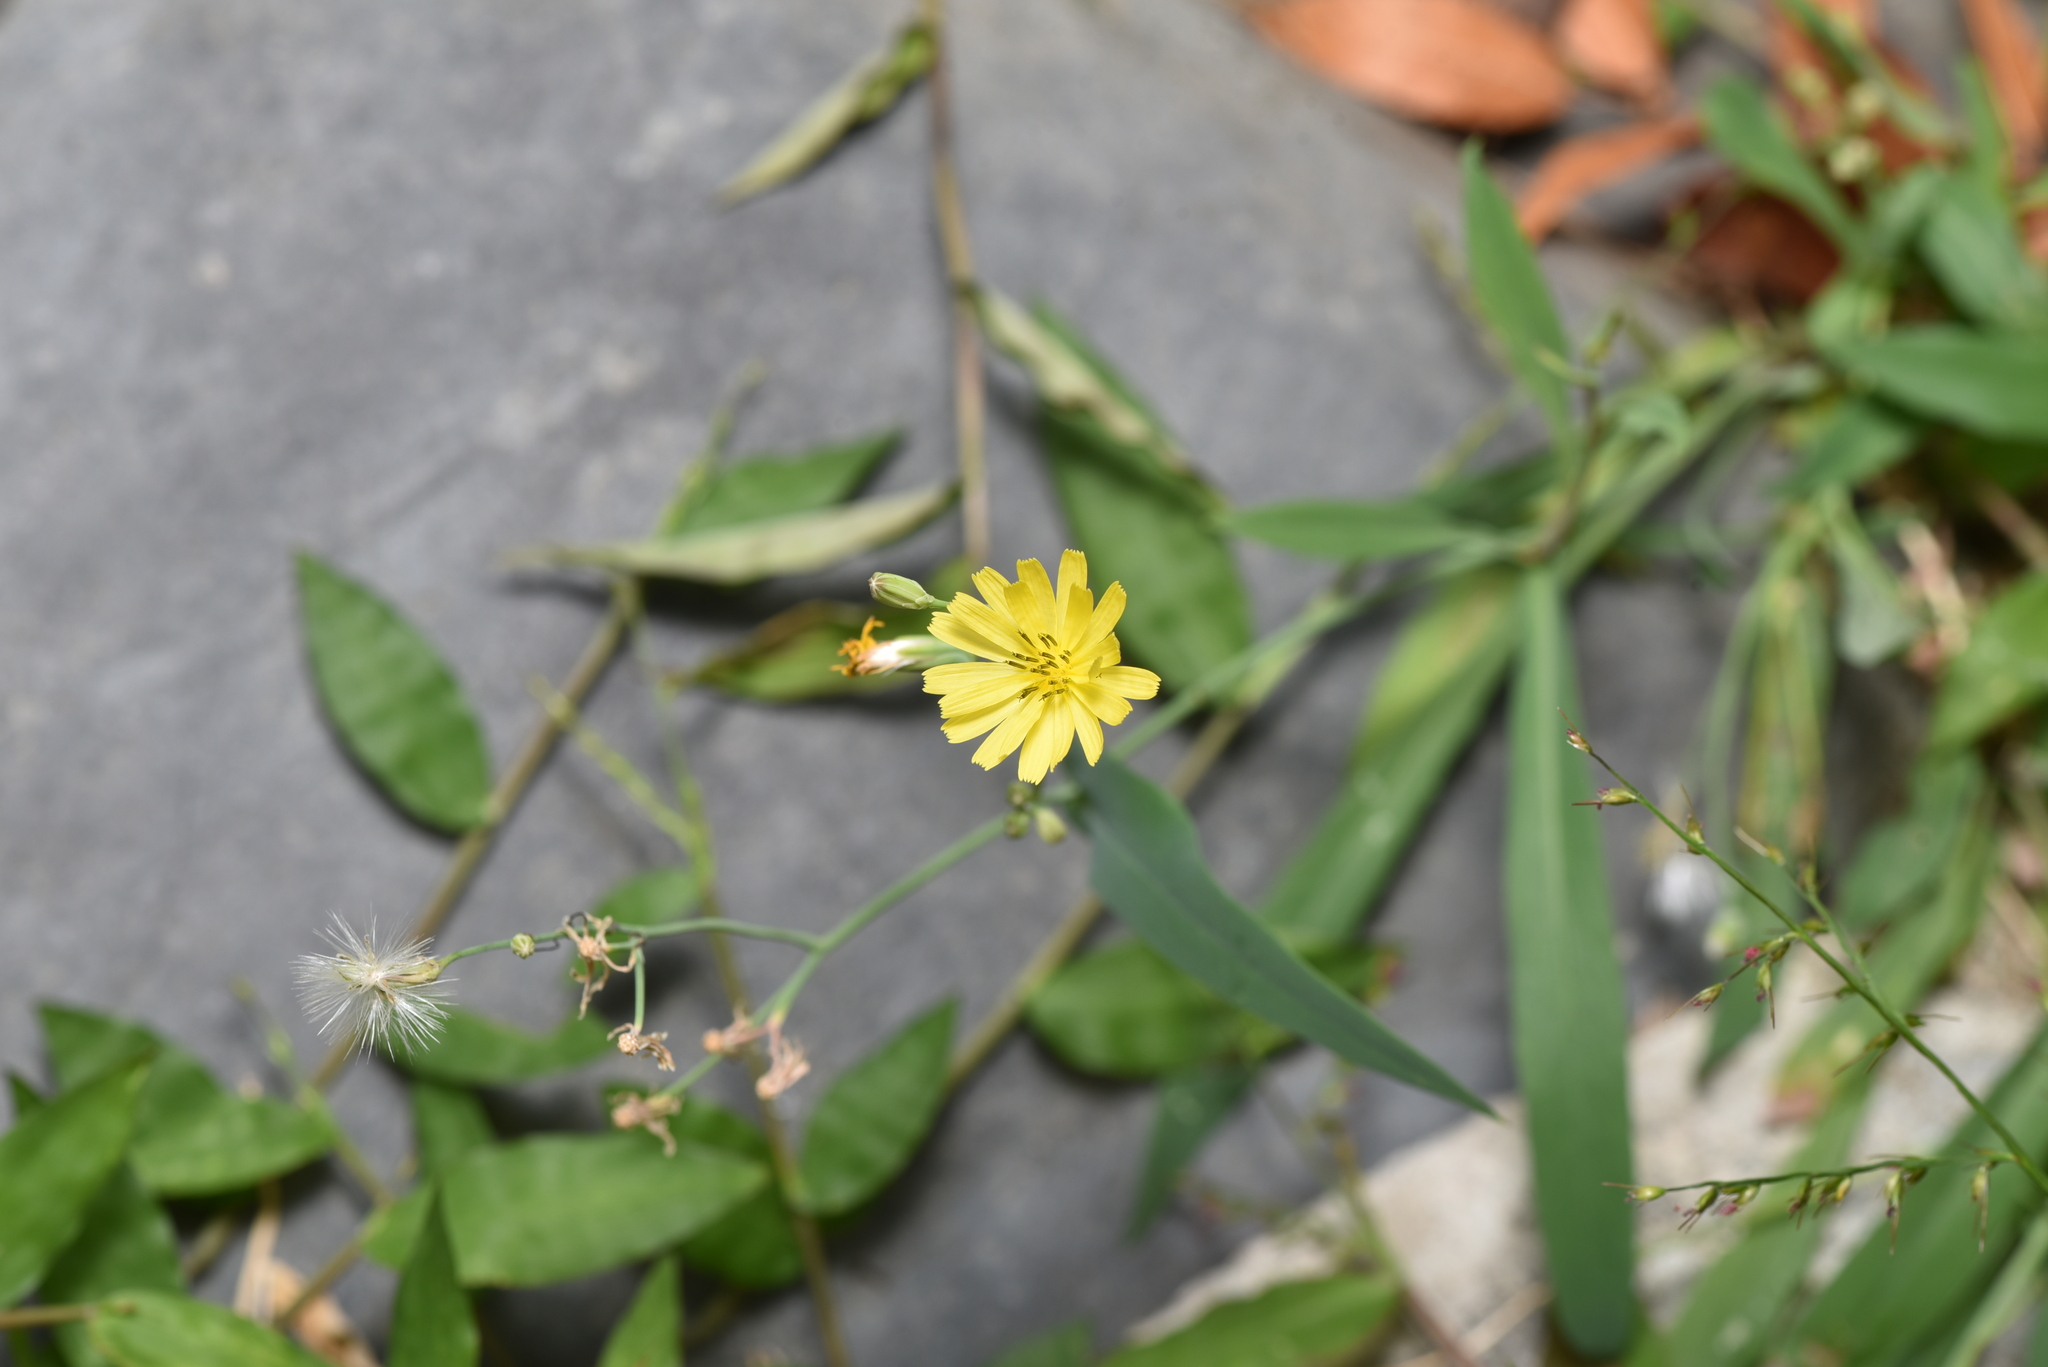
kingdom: Plantae
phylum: Tracheophyta
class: Magnoliopsida
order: Asterales
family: Asteraceae
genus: Ixeris
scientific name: Ixeris chinensis
